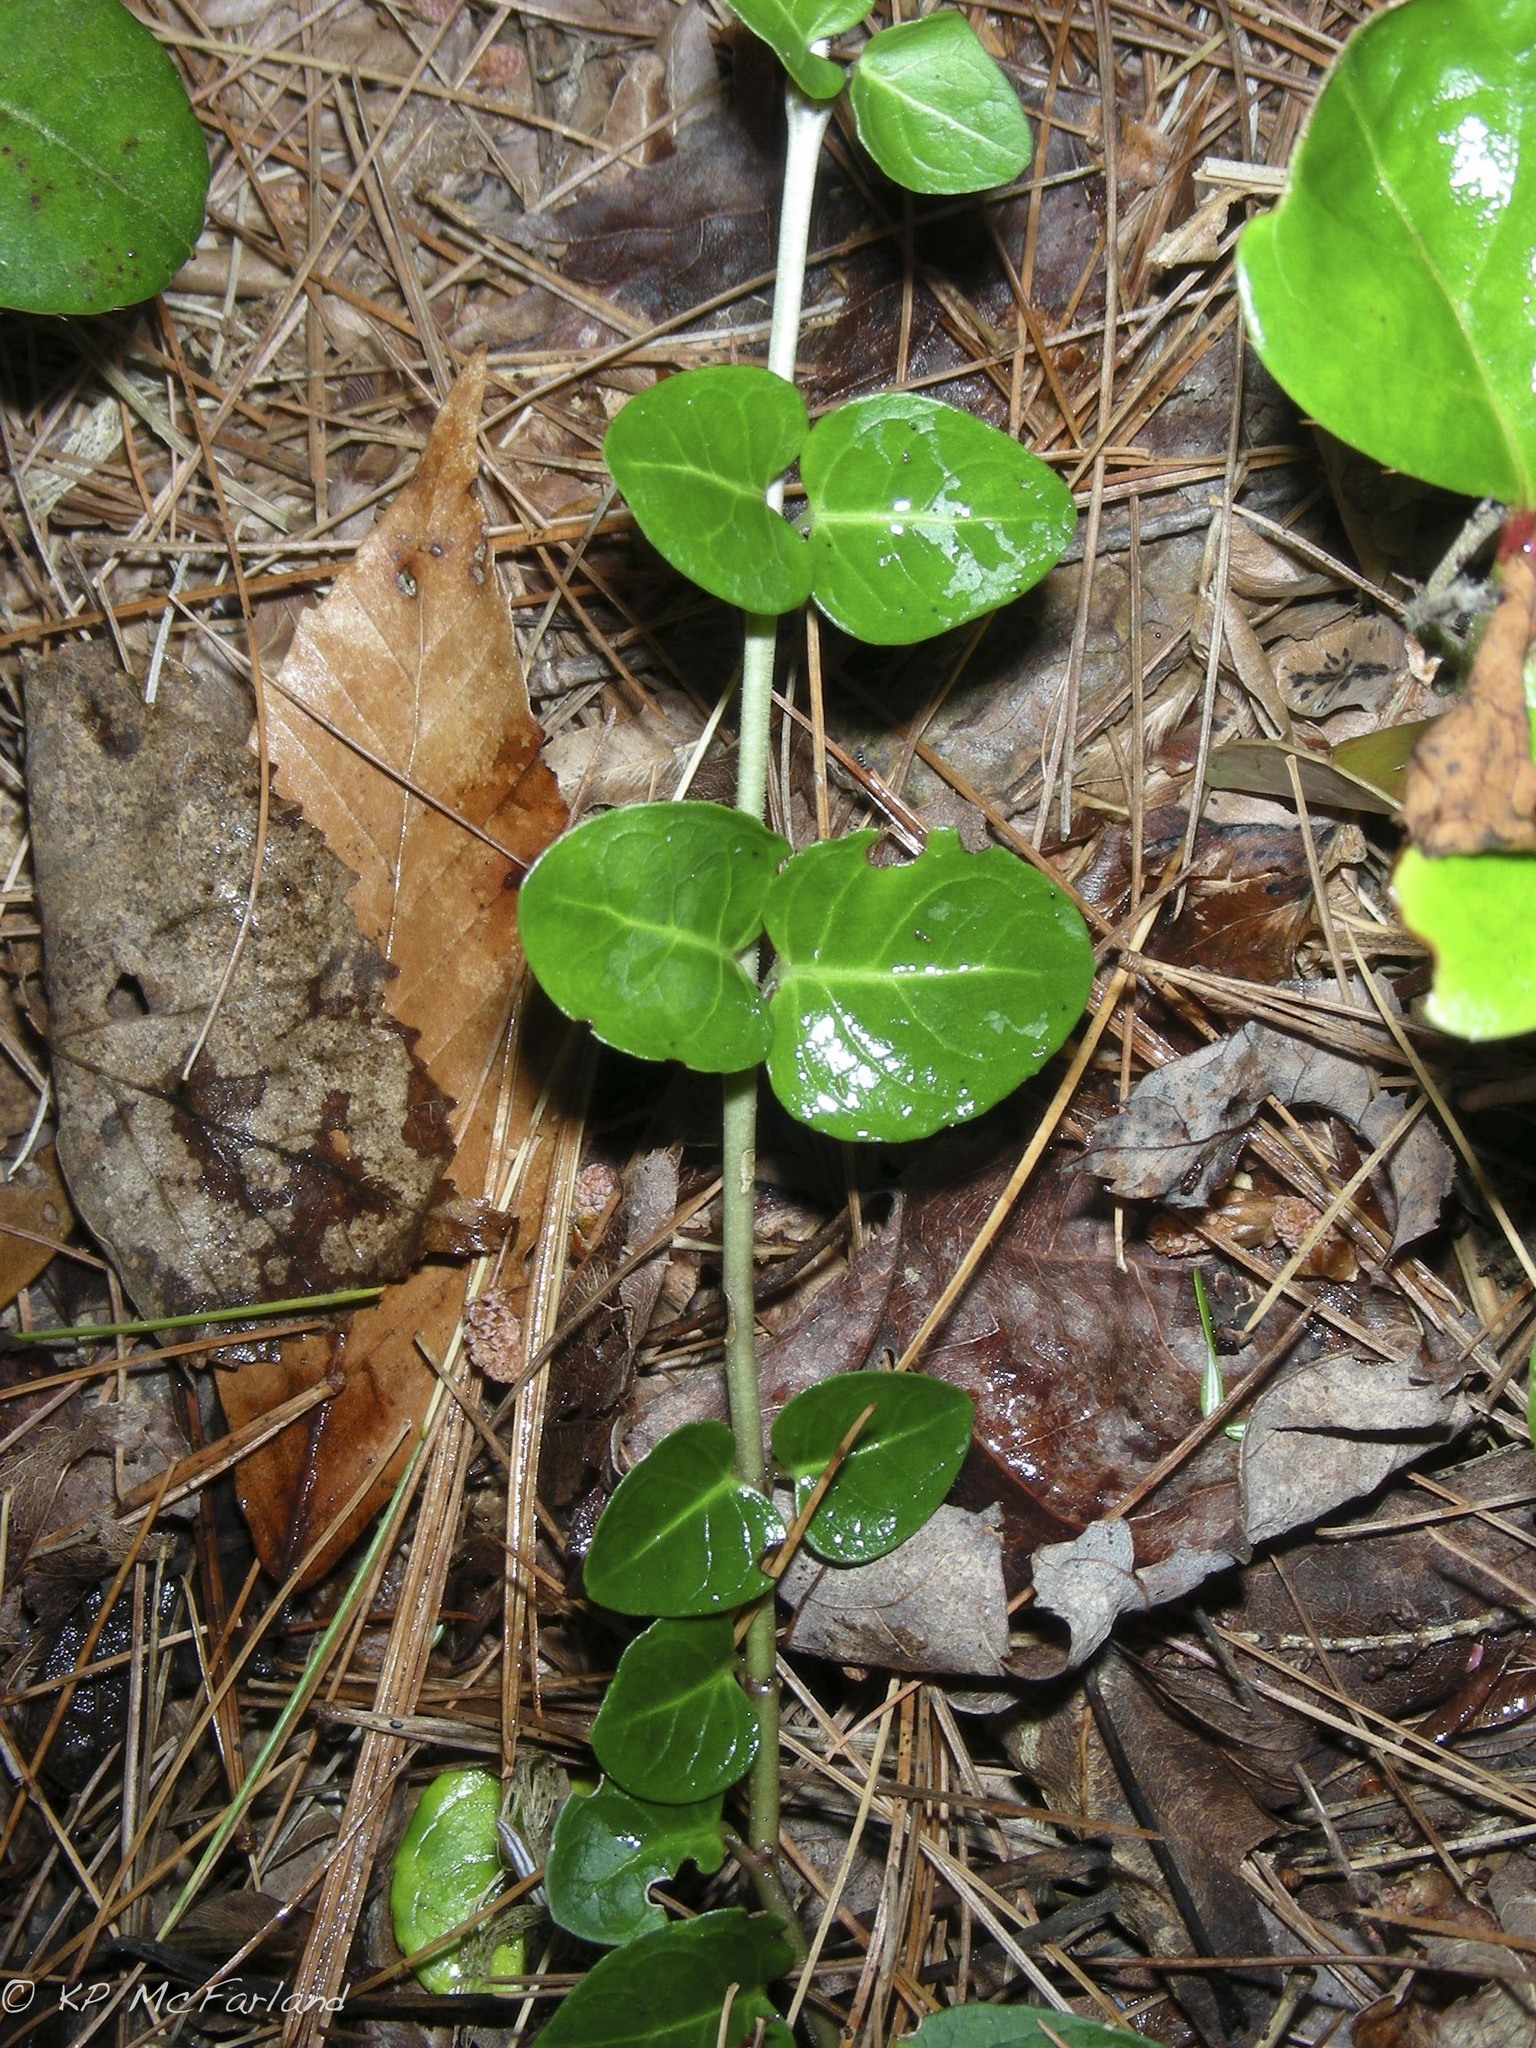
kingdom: Plantae
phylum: Tracheophyta
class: Magnoliopsida
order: Gentianales
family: Rubiaceae
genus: Mitchella
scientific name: Mitchella repens
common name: Partridge-berry
